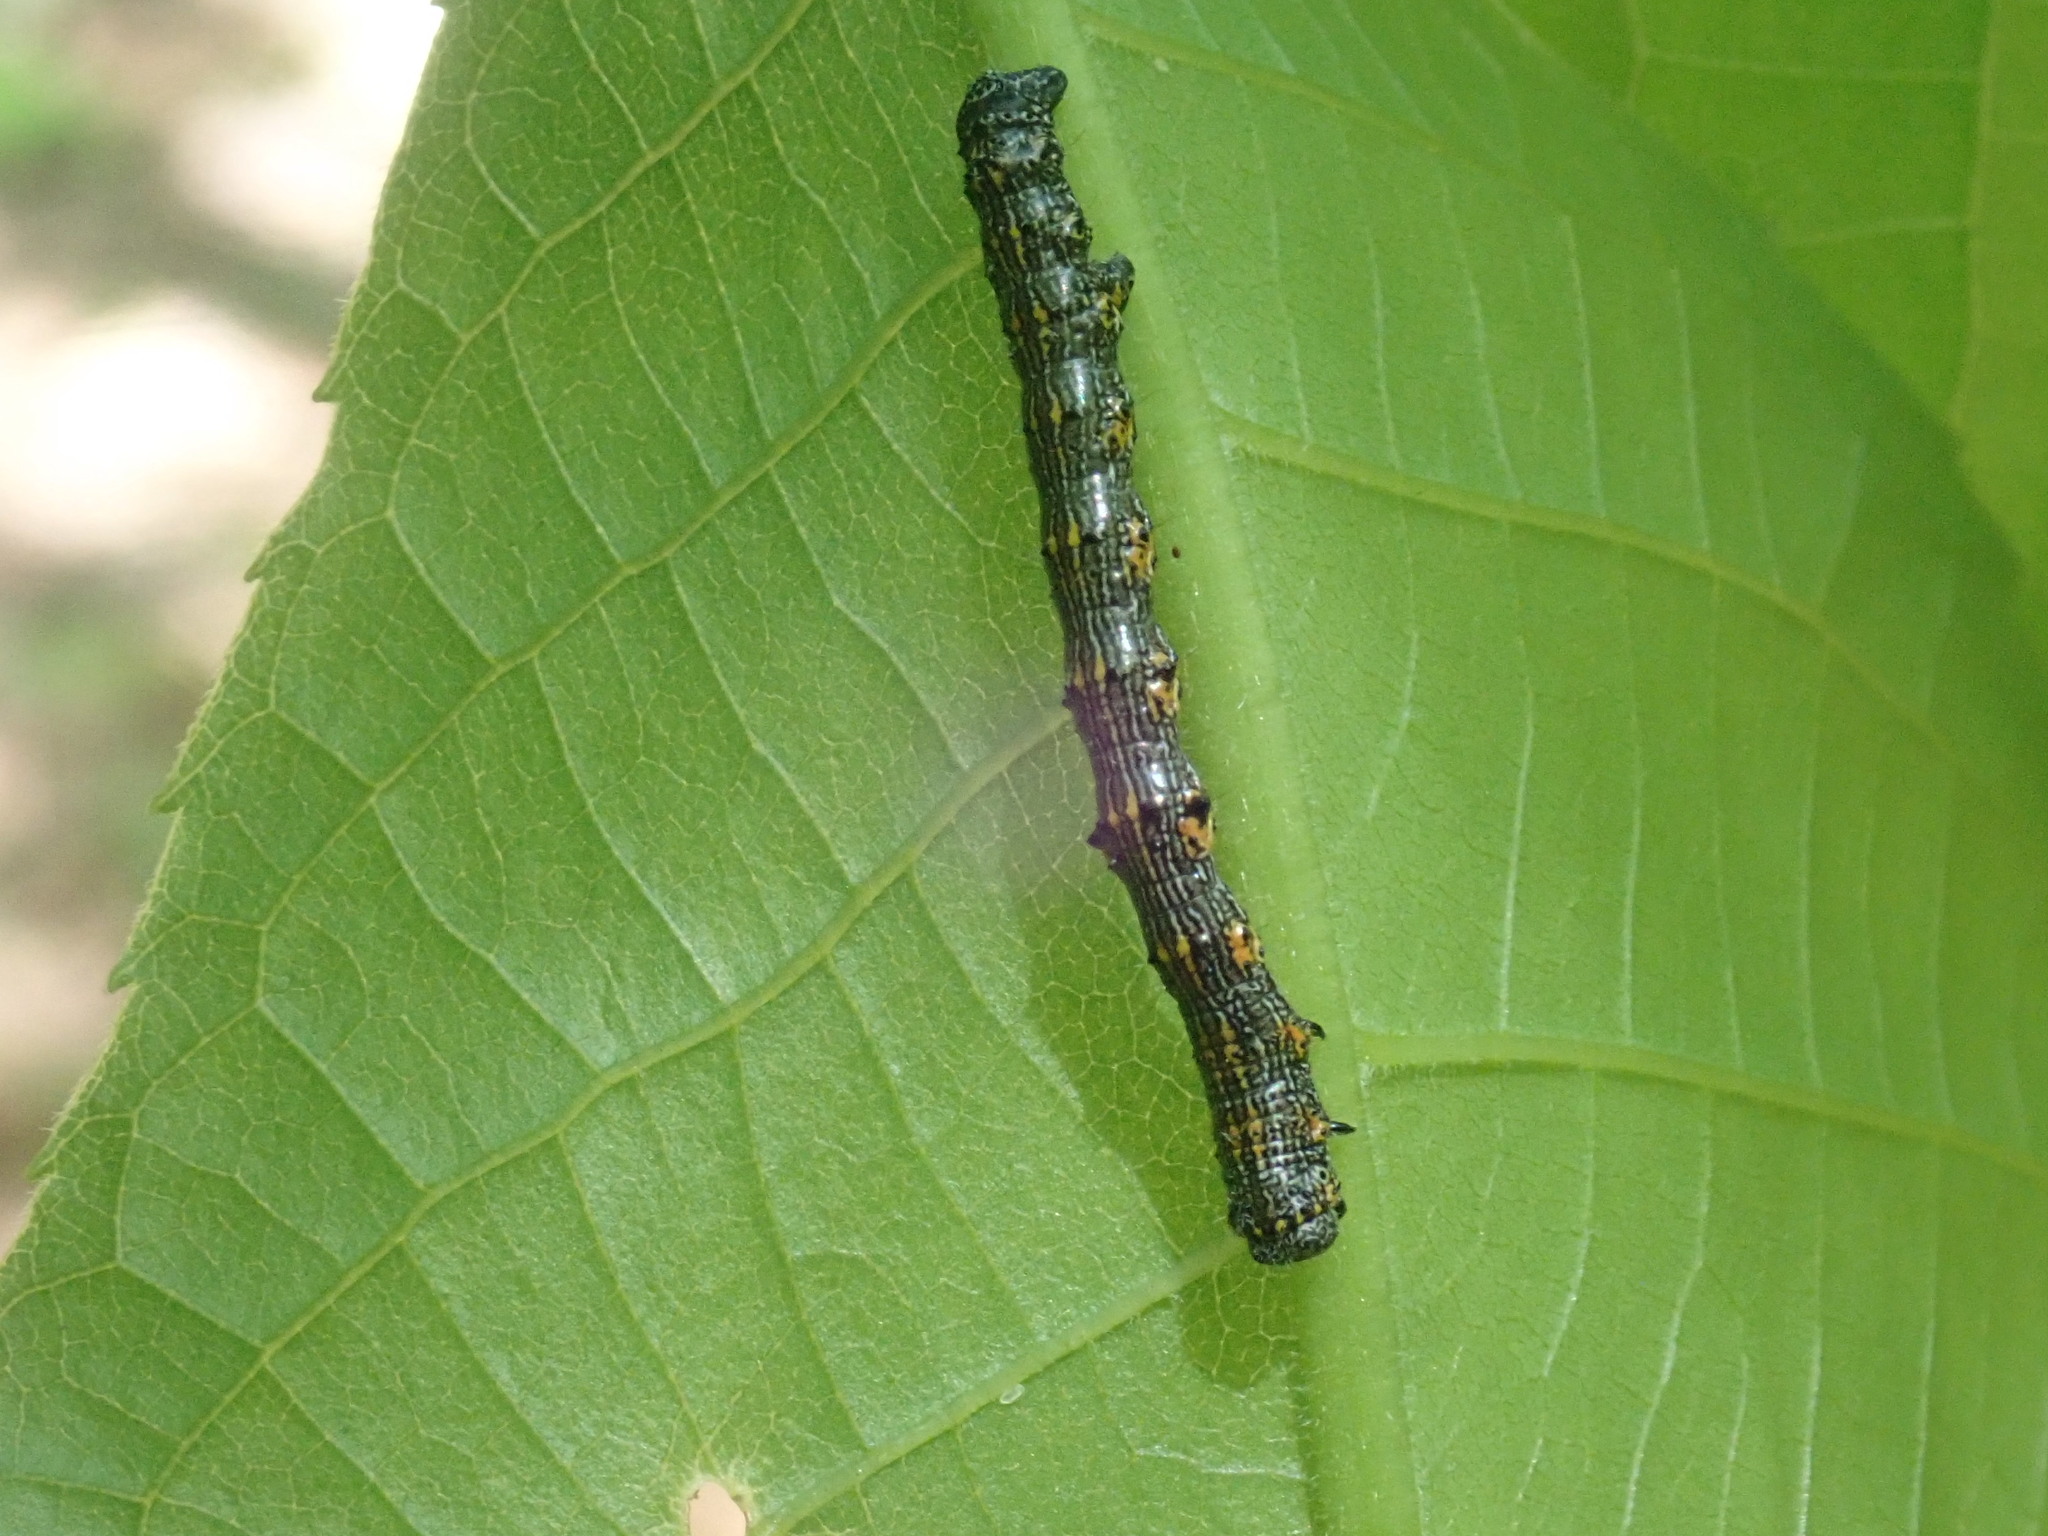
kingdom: Animalia
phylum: Arthropoda
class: Insecta
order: Lepidoptera
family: Geometridae
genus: Phigalia
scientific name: Phigalia titea
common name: Spiny looper
